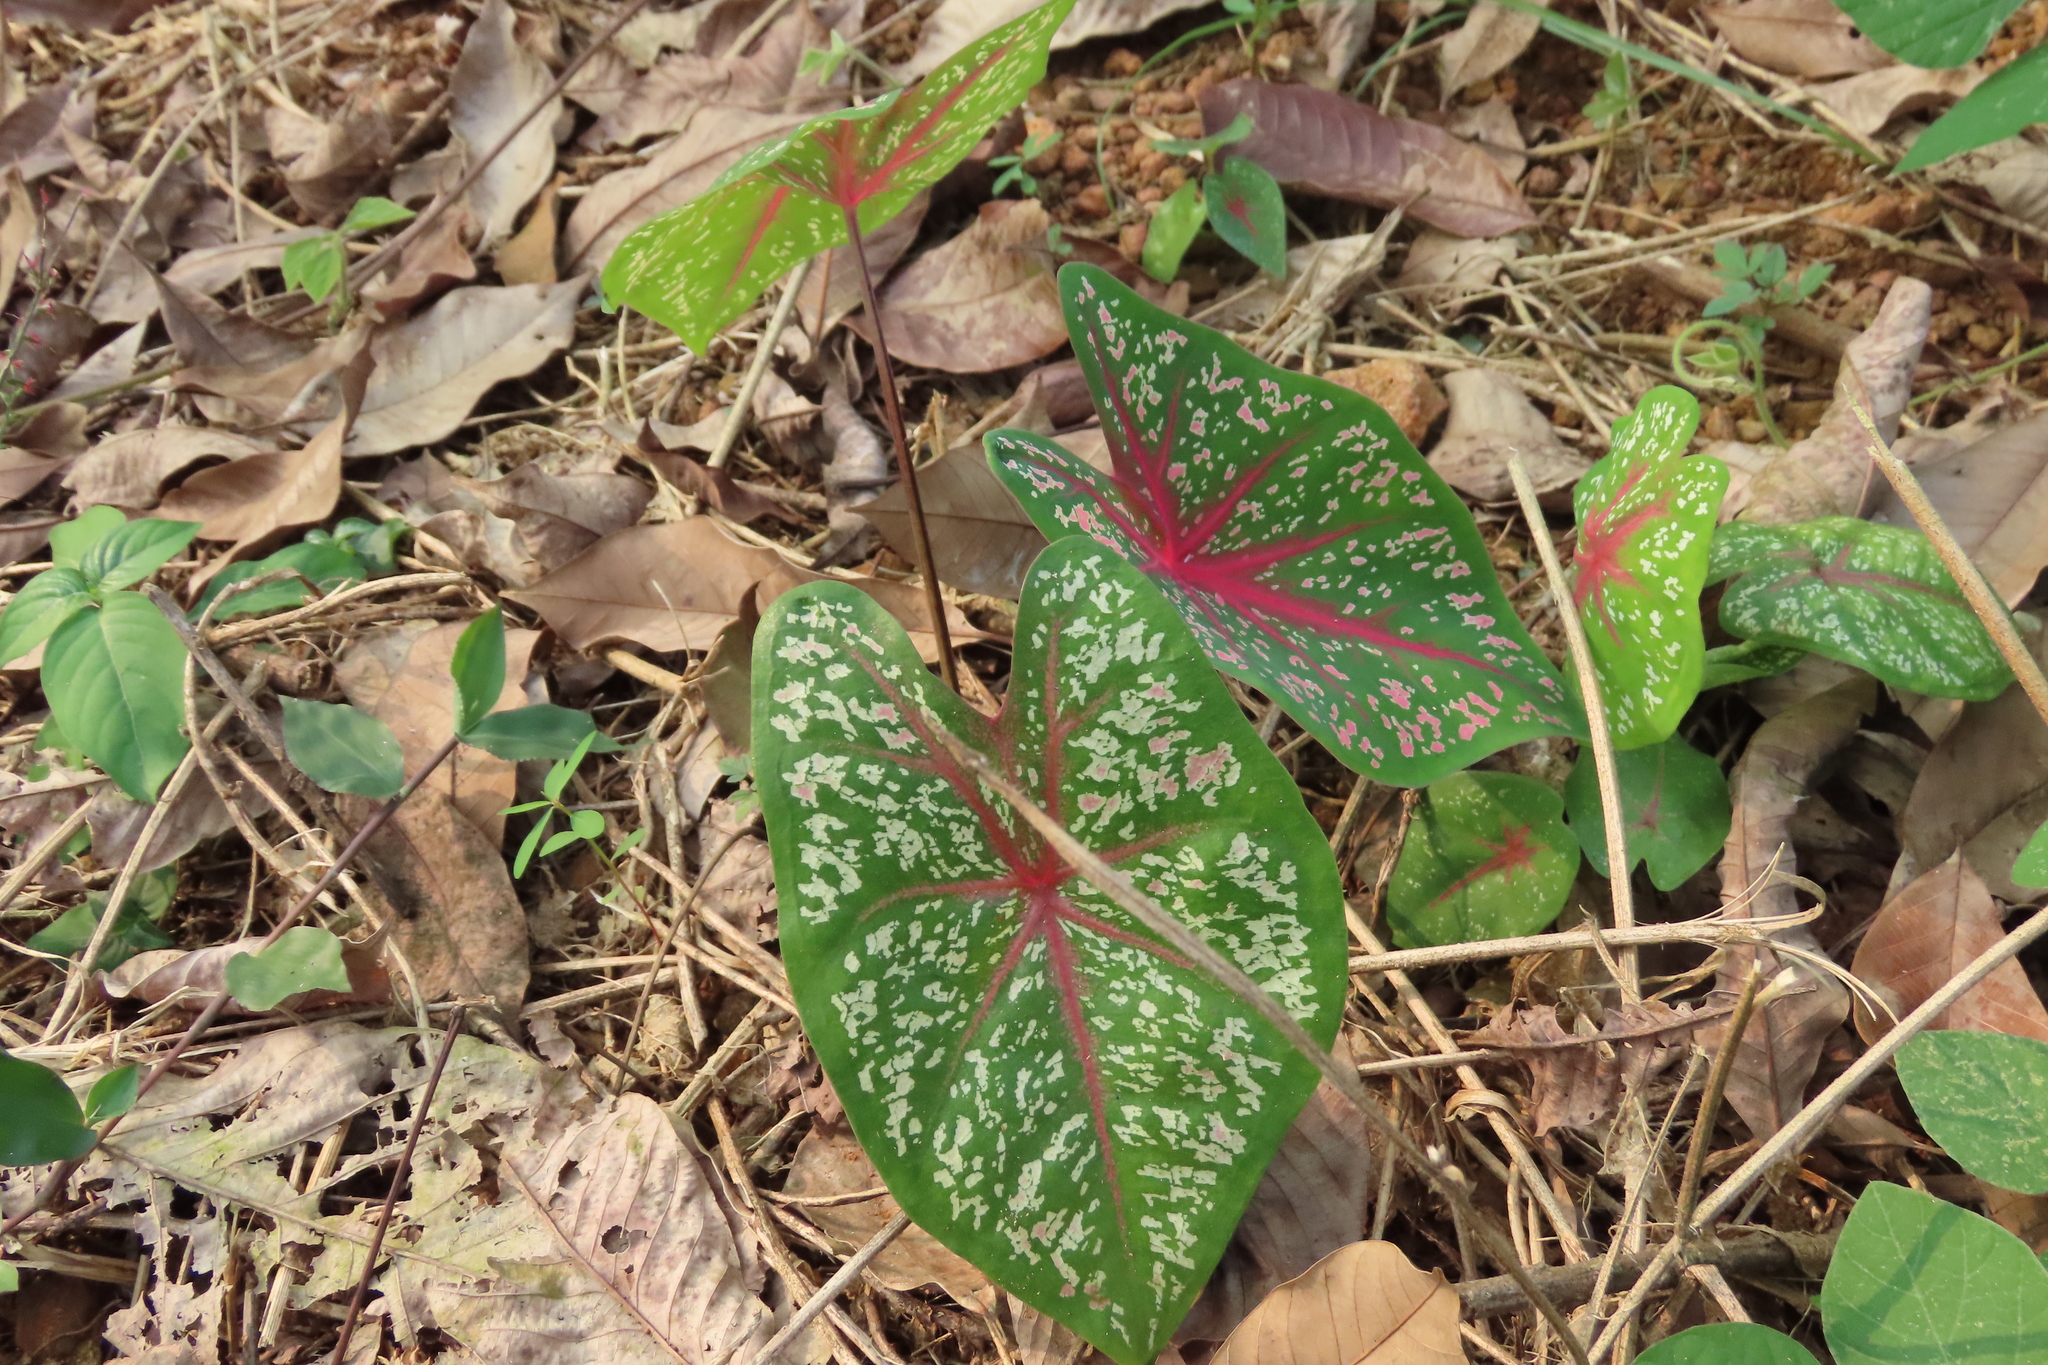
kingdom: Plantae
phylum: Tracheophyta
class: Liliopsida
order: Alismatales
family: Araceae
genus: Caladium
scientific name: Caladium bicolor
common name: Artist's pallet
